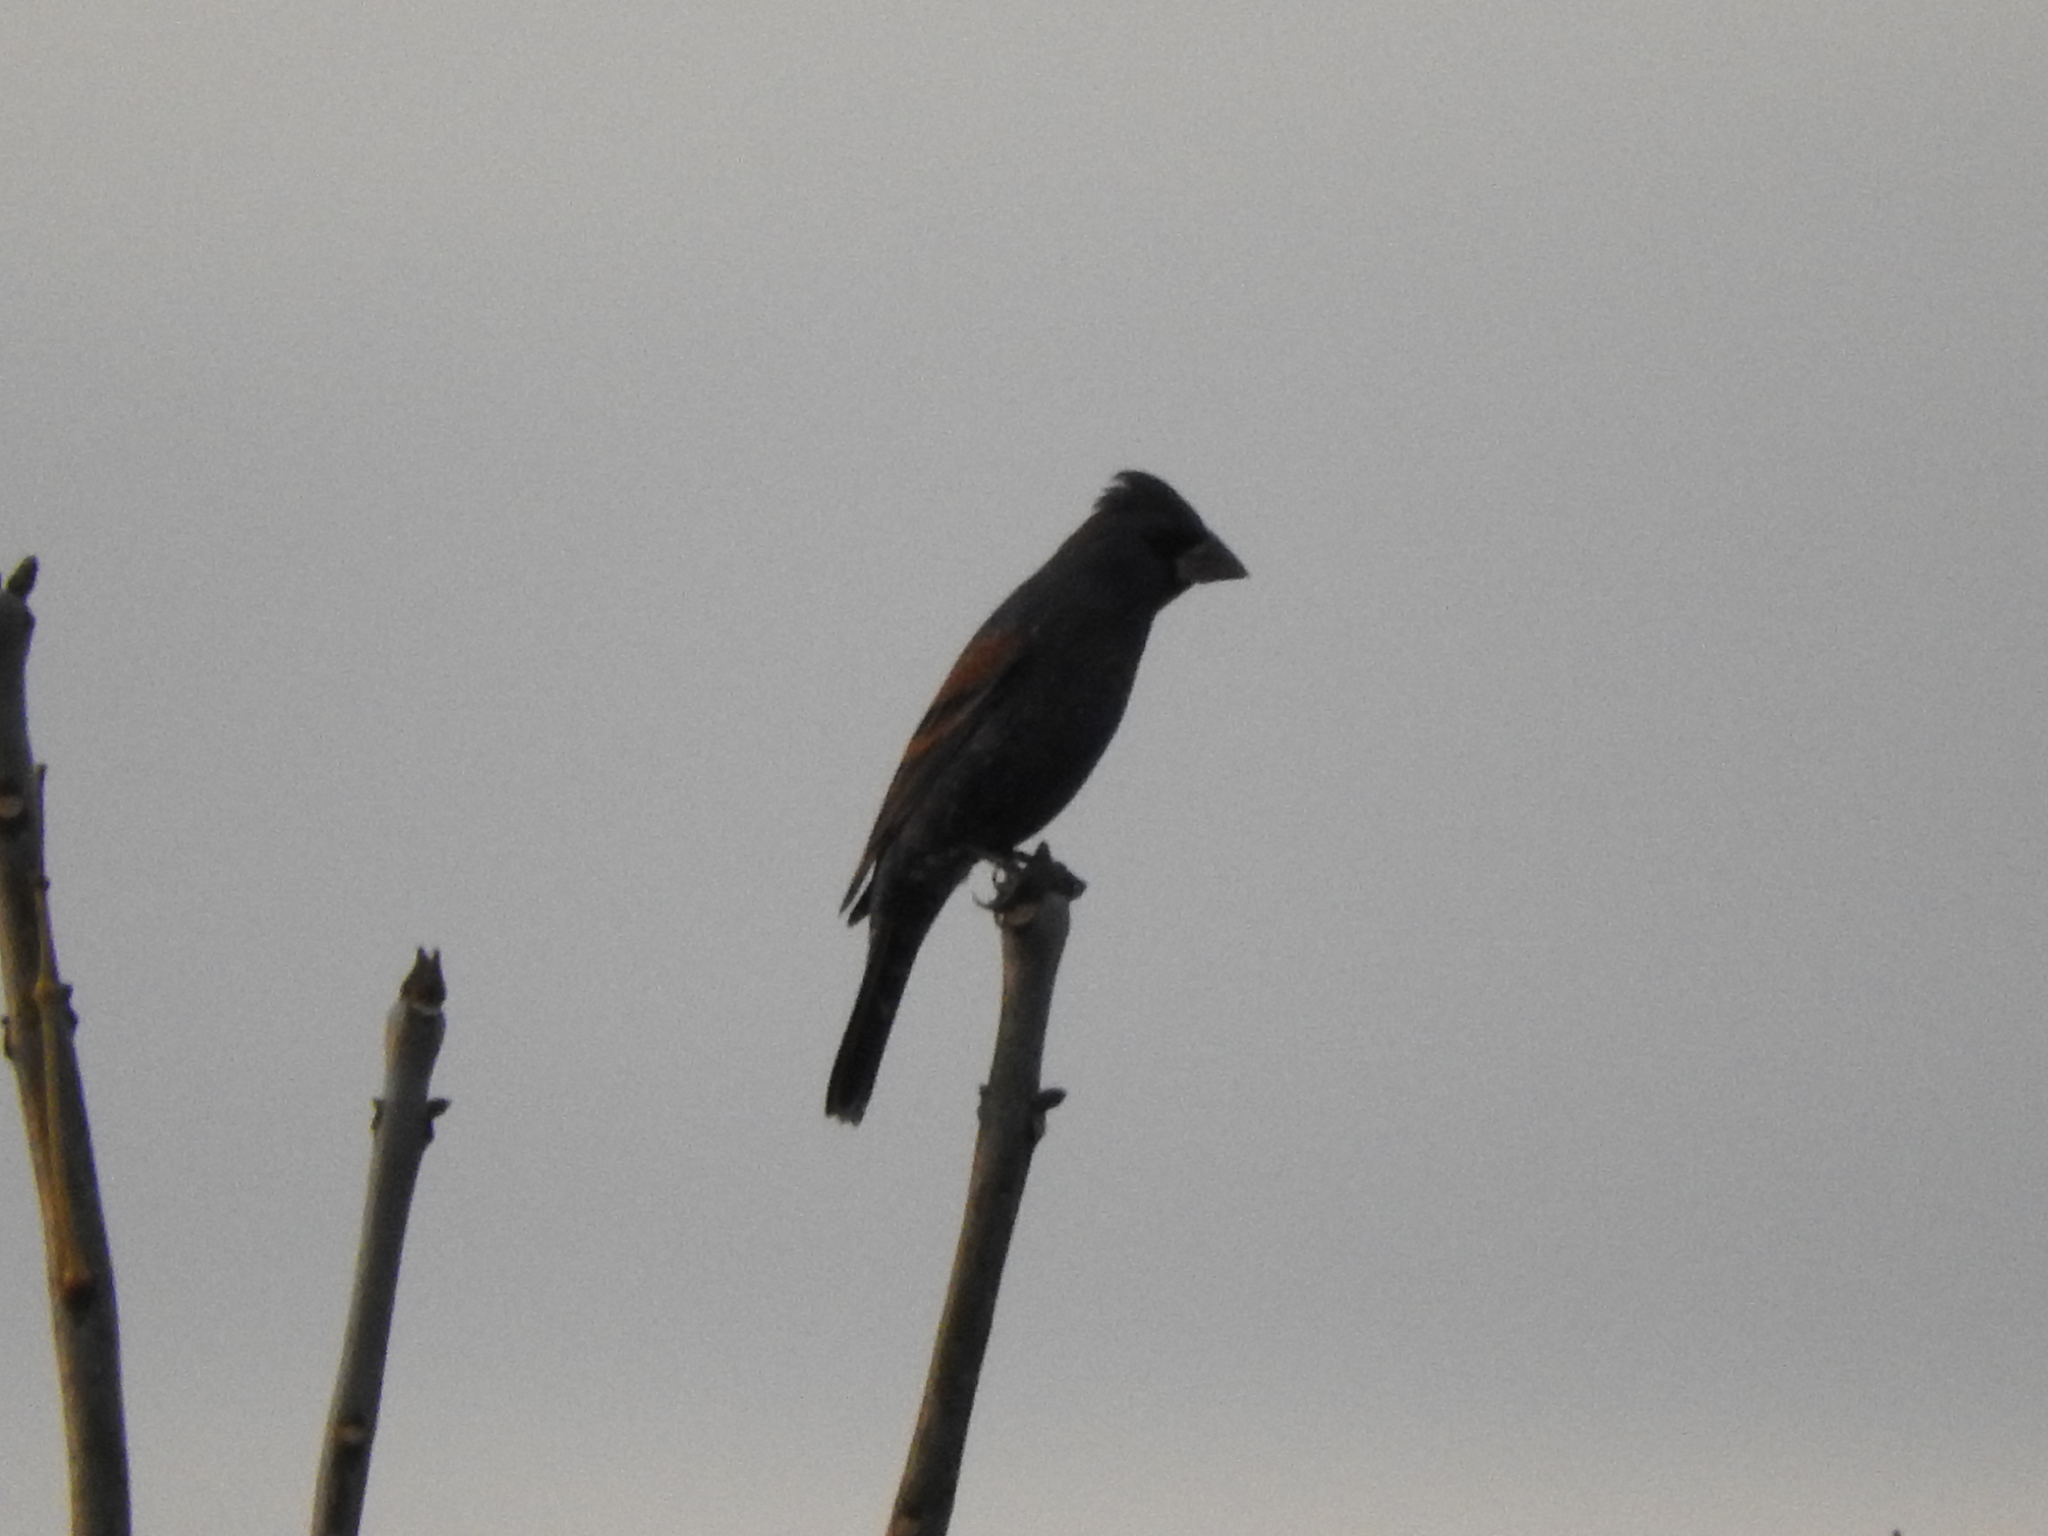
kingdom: Animalia
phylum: Chordata
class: Aves
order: Passeriformes
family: Cardinalidae
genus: Passerina
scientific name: Passerina caerulea
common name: Blue grosbeak
